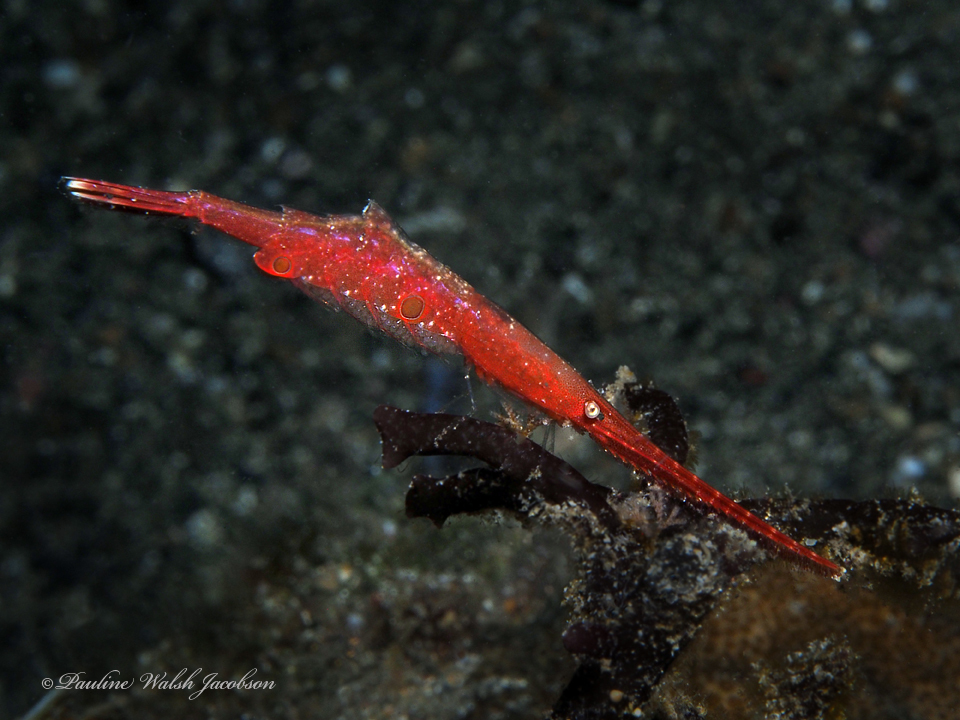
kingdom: Animalia
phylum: Arthropoda
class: Malacostraca
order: Decapoda
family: Hippolytidae
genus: Tozeuma
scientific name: Tozeuma lanceolatum
